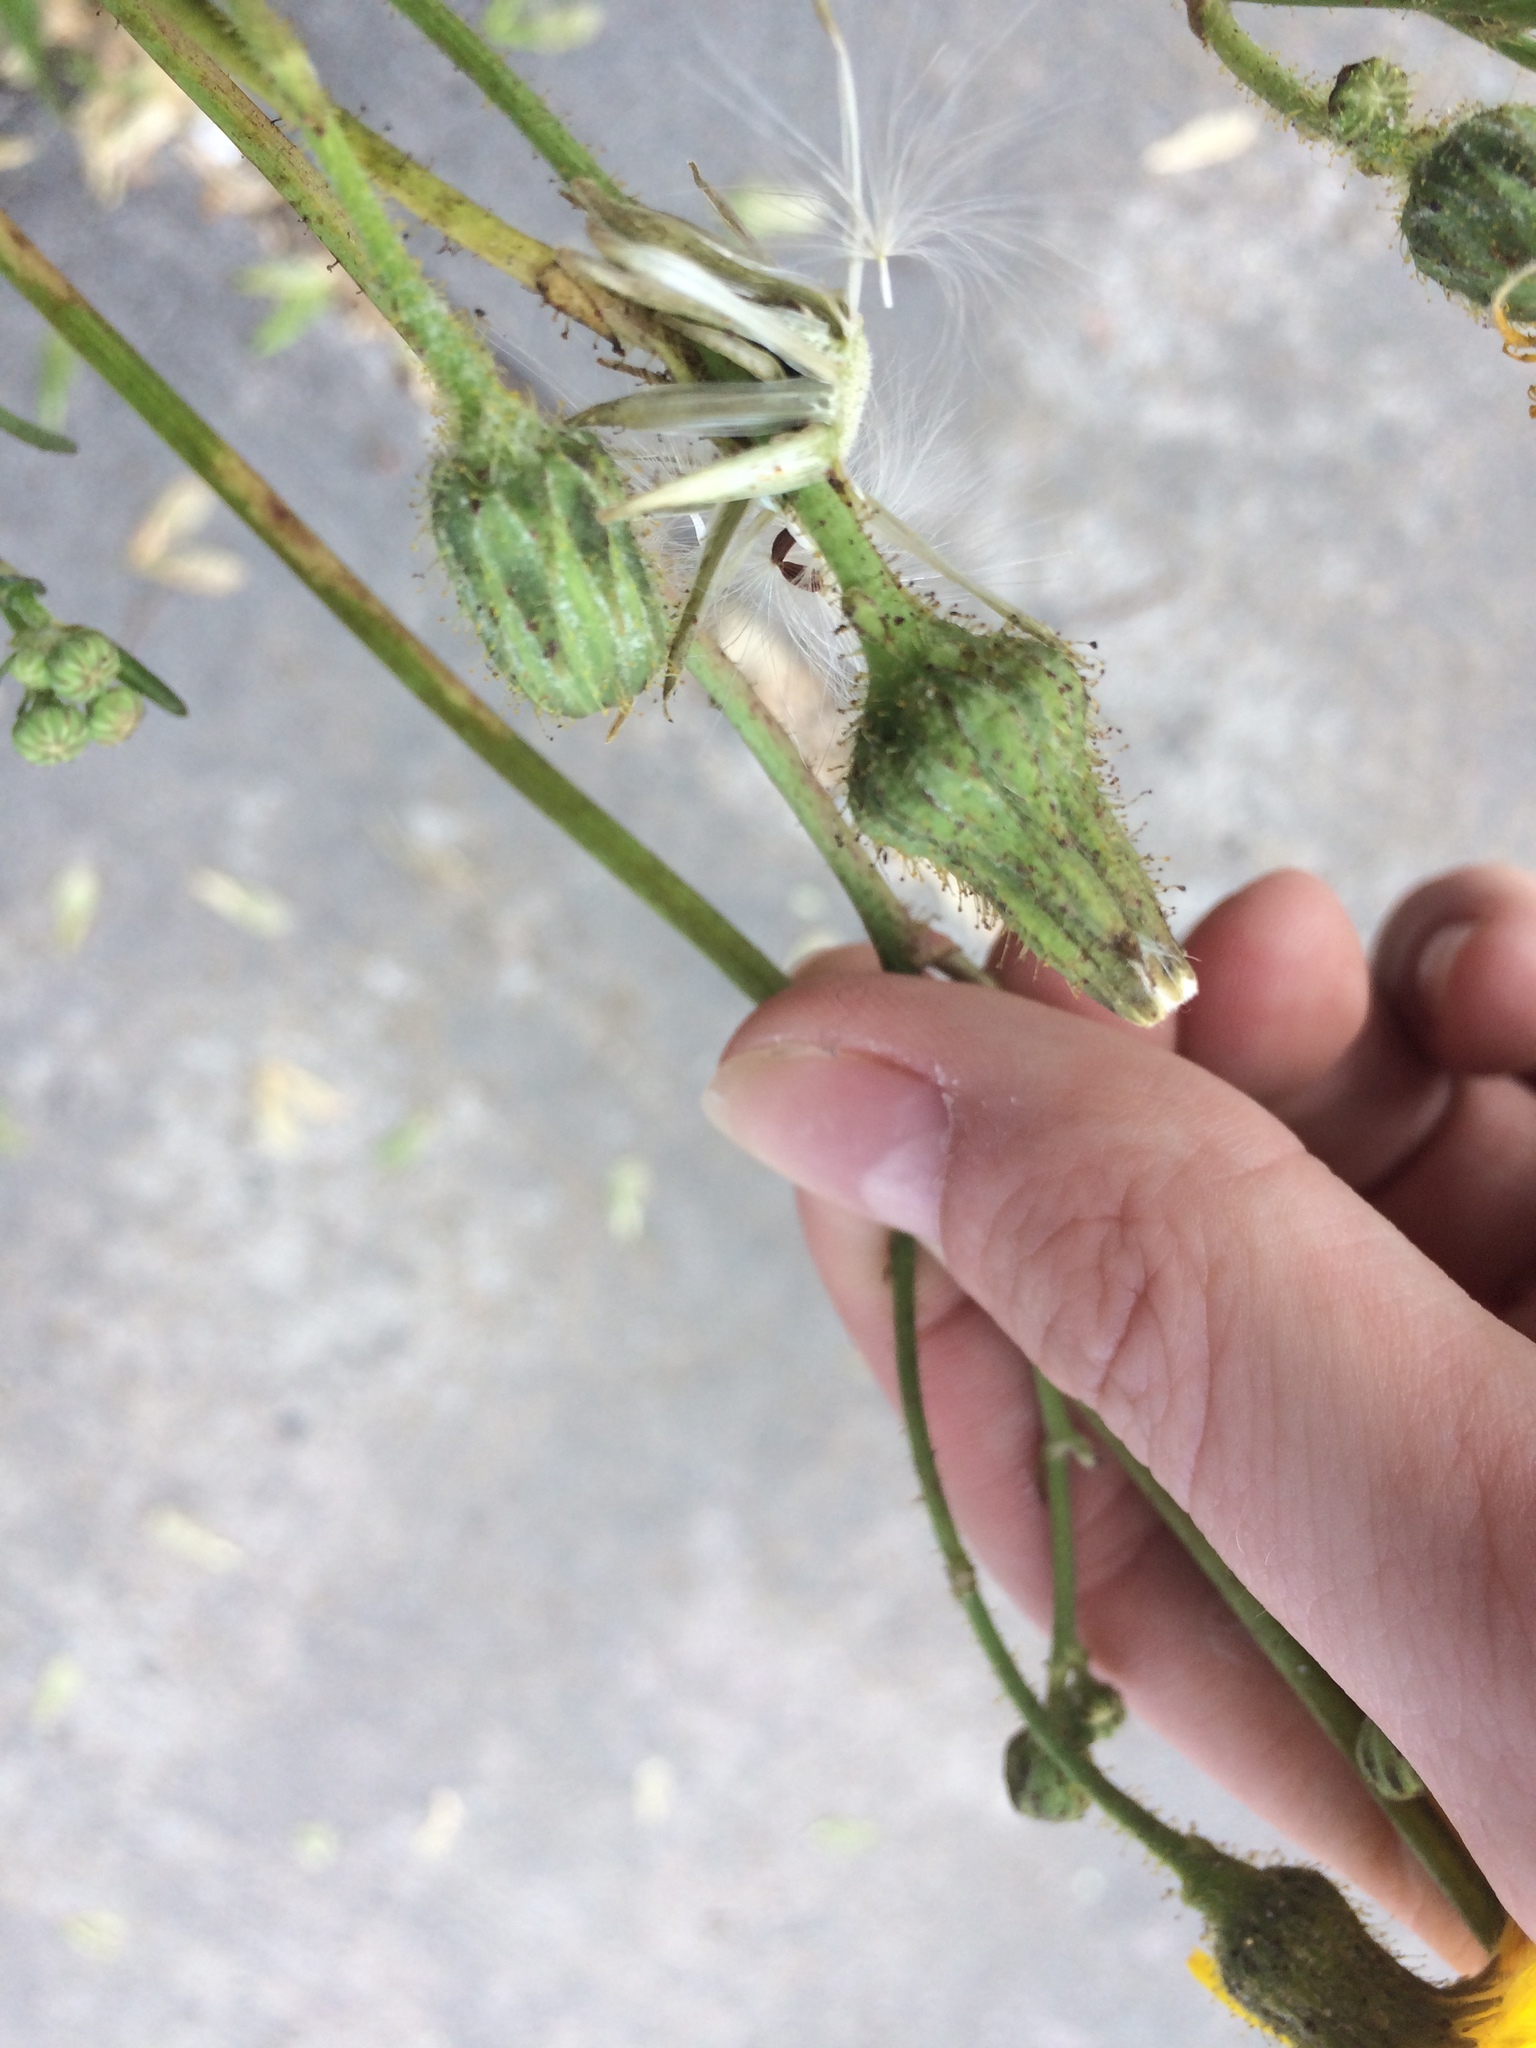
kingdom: Plantae
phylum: Tracheophyta
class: Magnoliopsida
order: Asterales
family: Asteraceae
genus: Sonchus
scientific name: Sonchus arvensis
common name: Perennial sow-thistle
